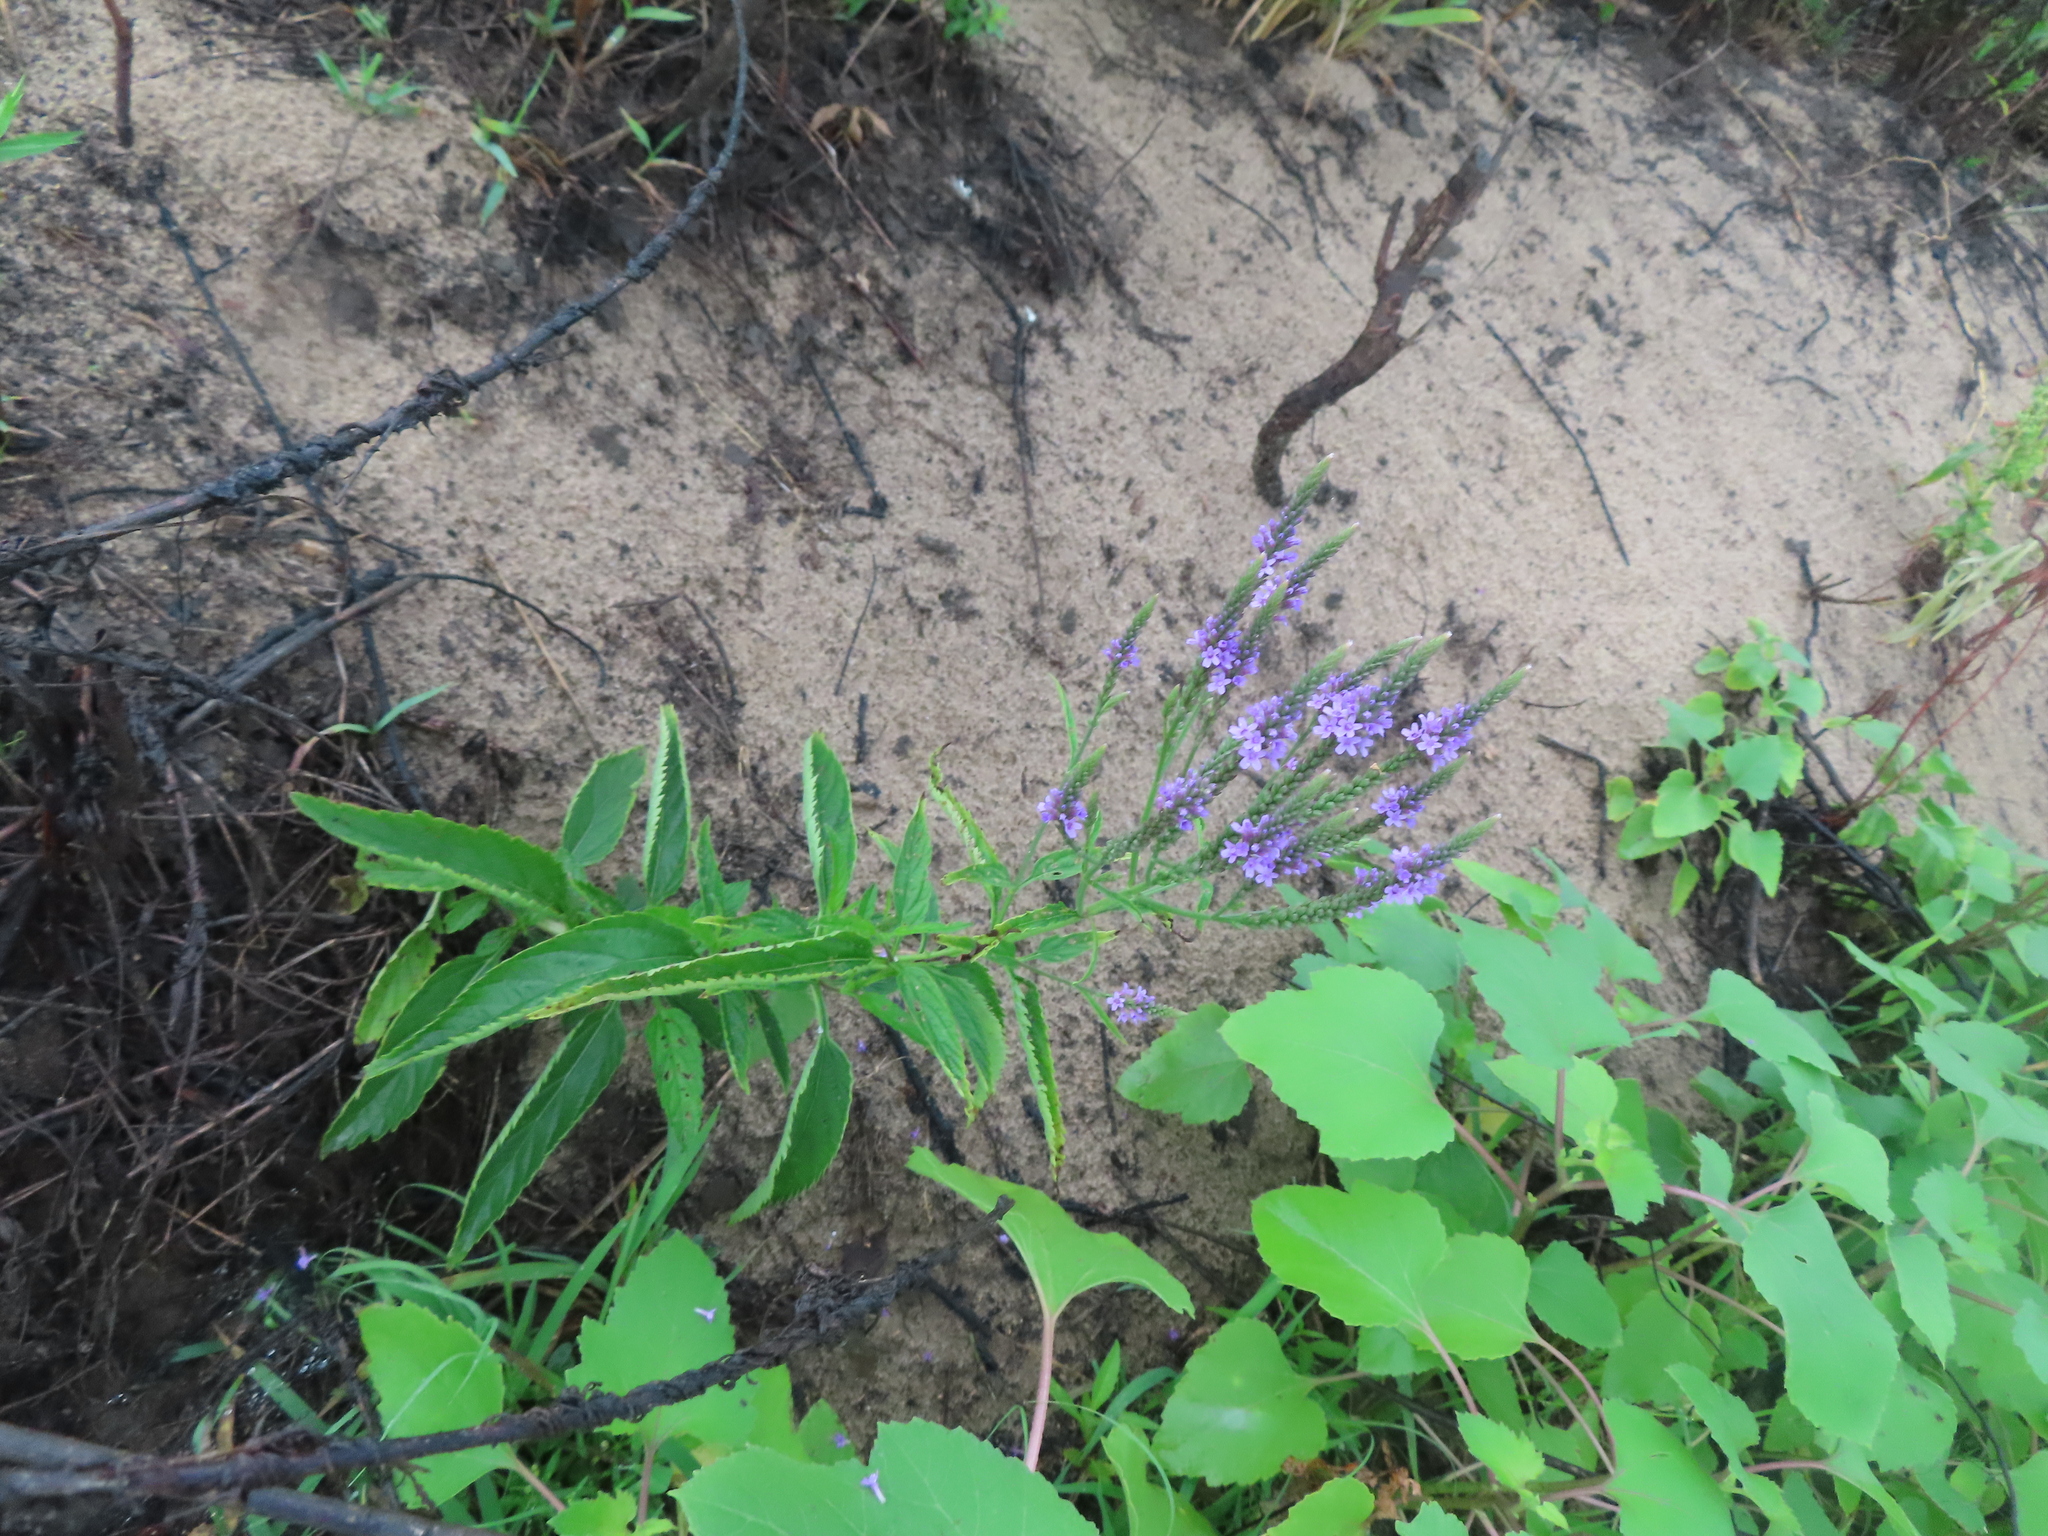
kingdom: Plantae
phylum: Tracheophyta
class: Magnoliopsida
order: Lamiales
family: Verbenaceae
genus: Verbena
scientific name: Verbena hastata
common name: American blue vervain
